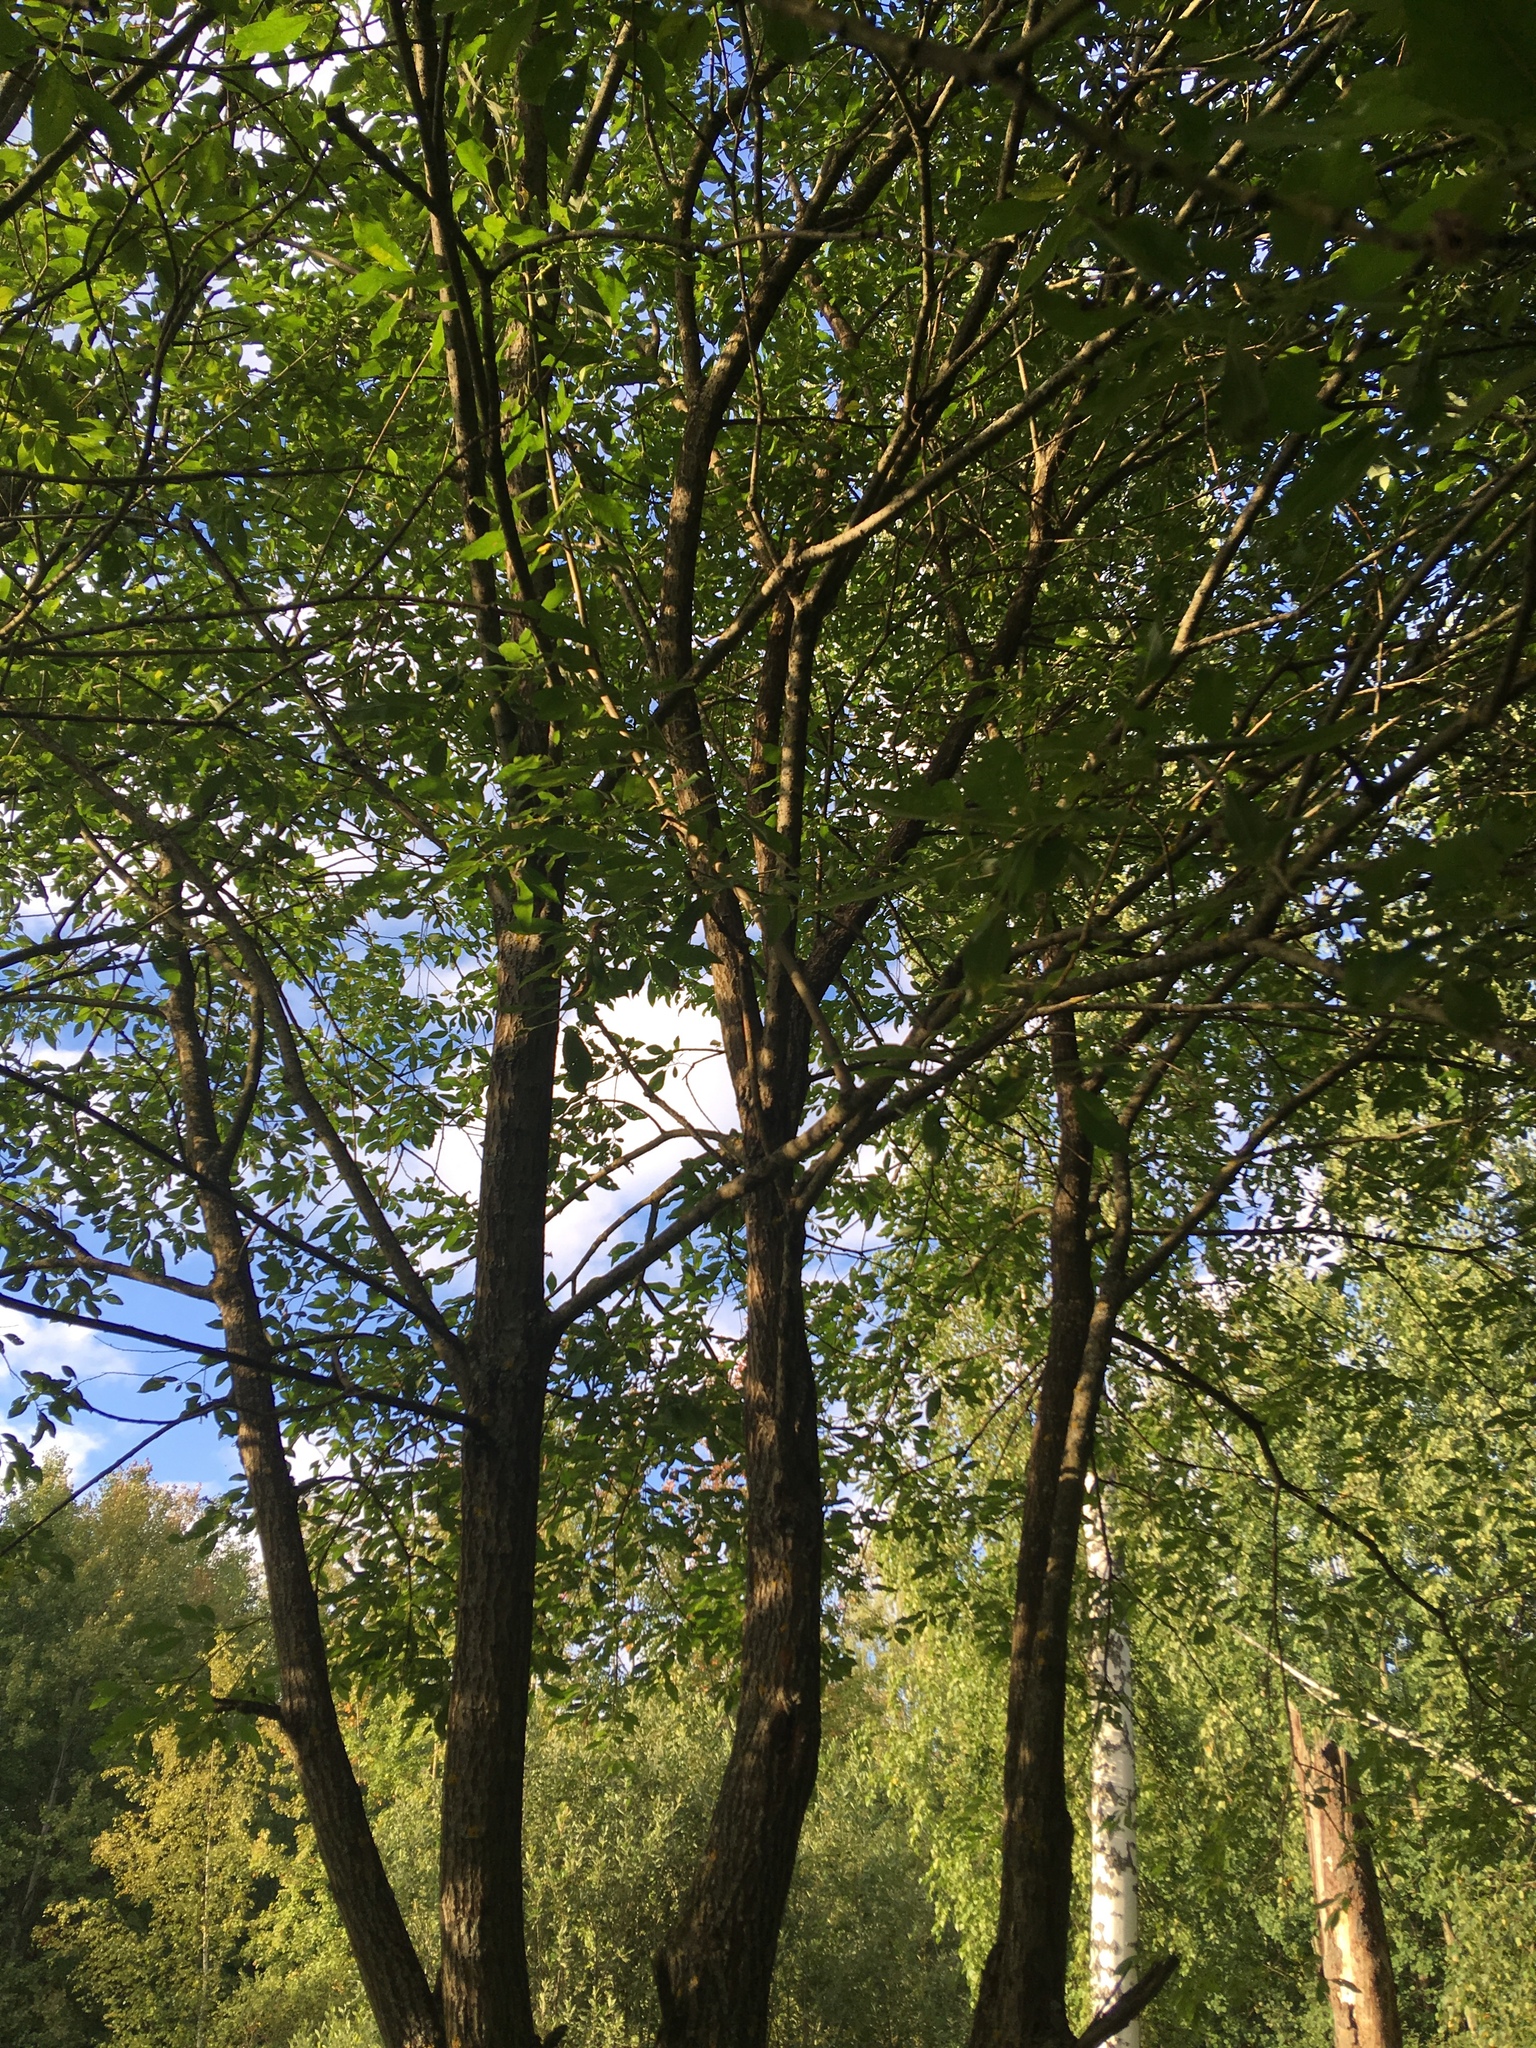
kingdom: Plantae
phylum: Tracheophyta
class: Magnoliopsida
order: Malpighiales
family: Salicaceae
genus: Salix
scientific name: Salix caprea
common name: Goat willow
